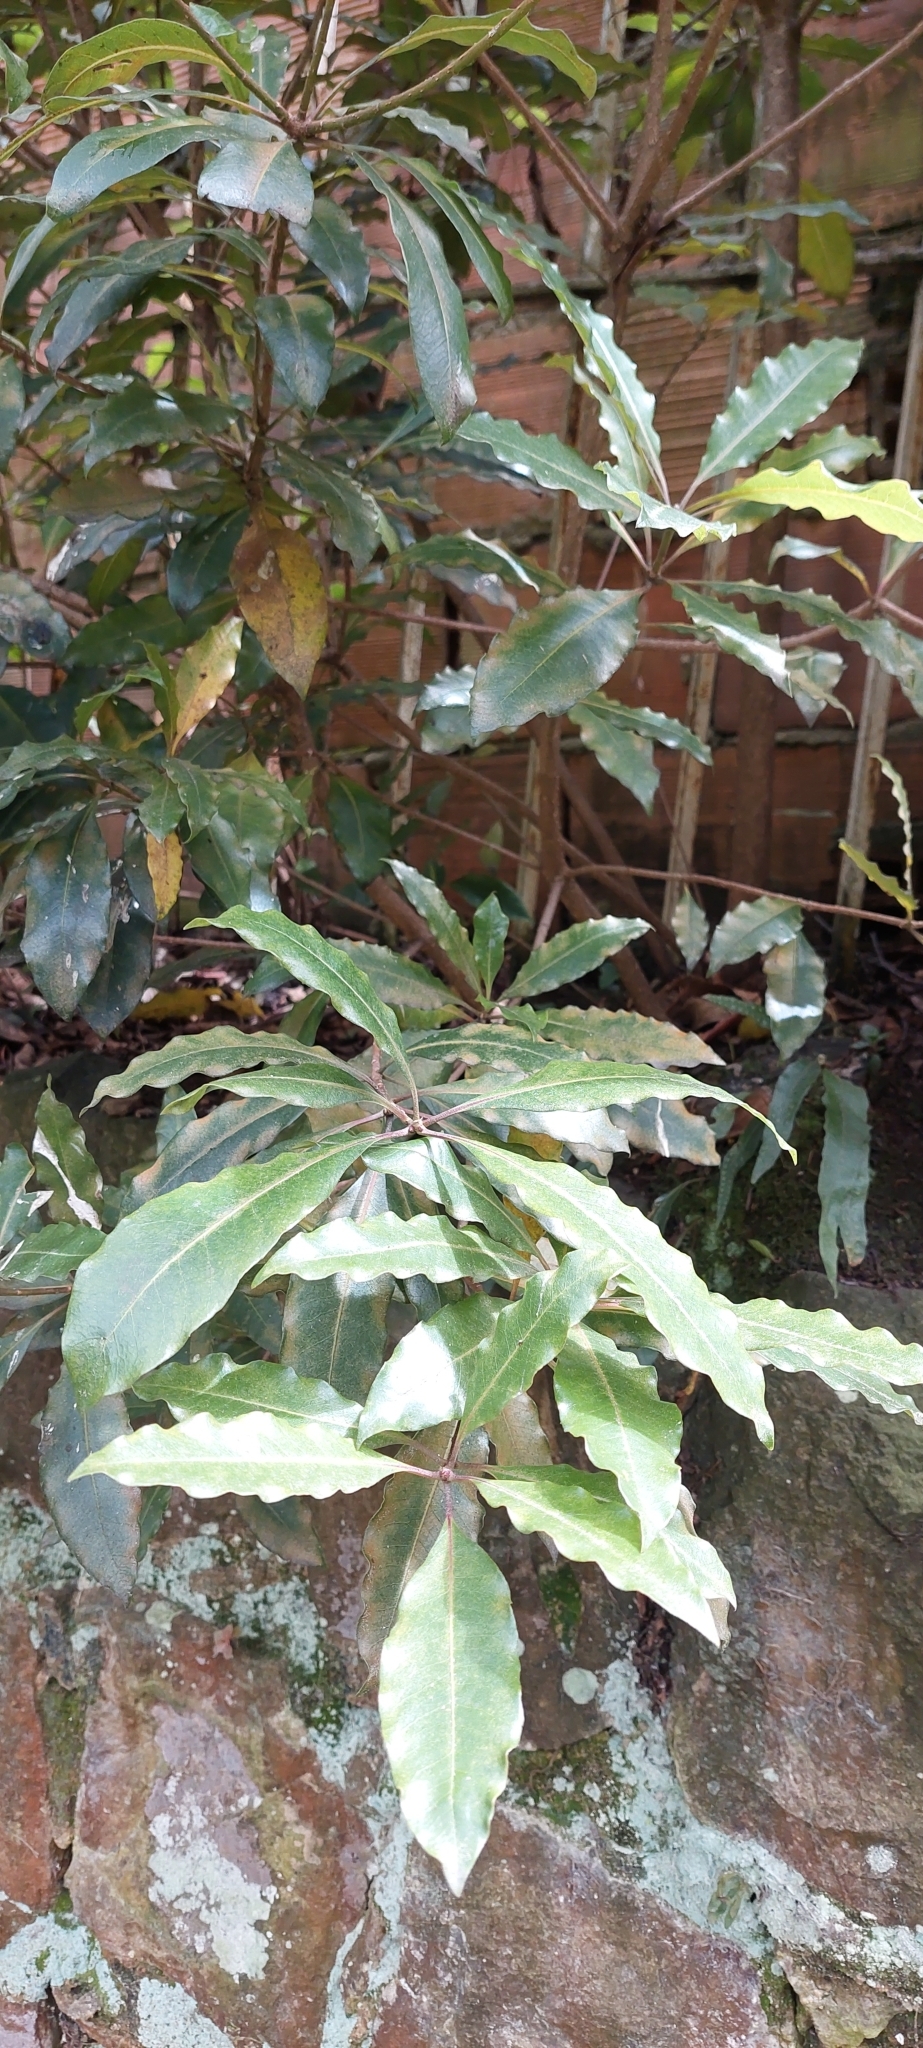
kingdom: Plantae
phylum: Tracheophyta
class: Magnoliopsida
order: Apiales
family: Pittosporaceae
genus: Pittosporum
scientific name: Pittosporum undulatum
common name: Australian cheesewood
